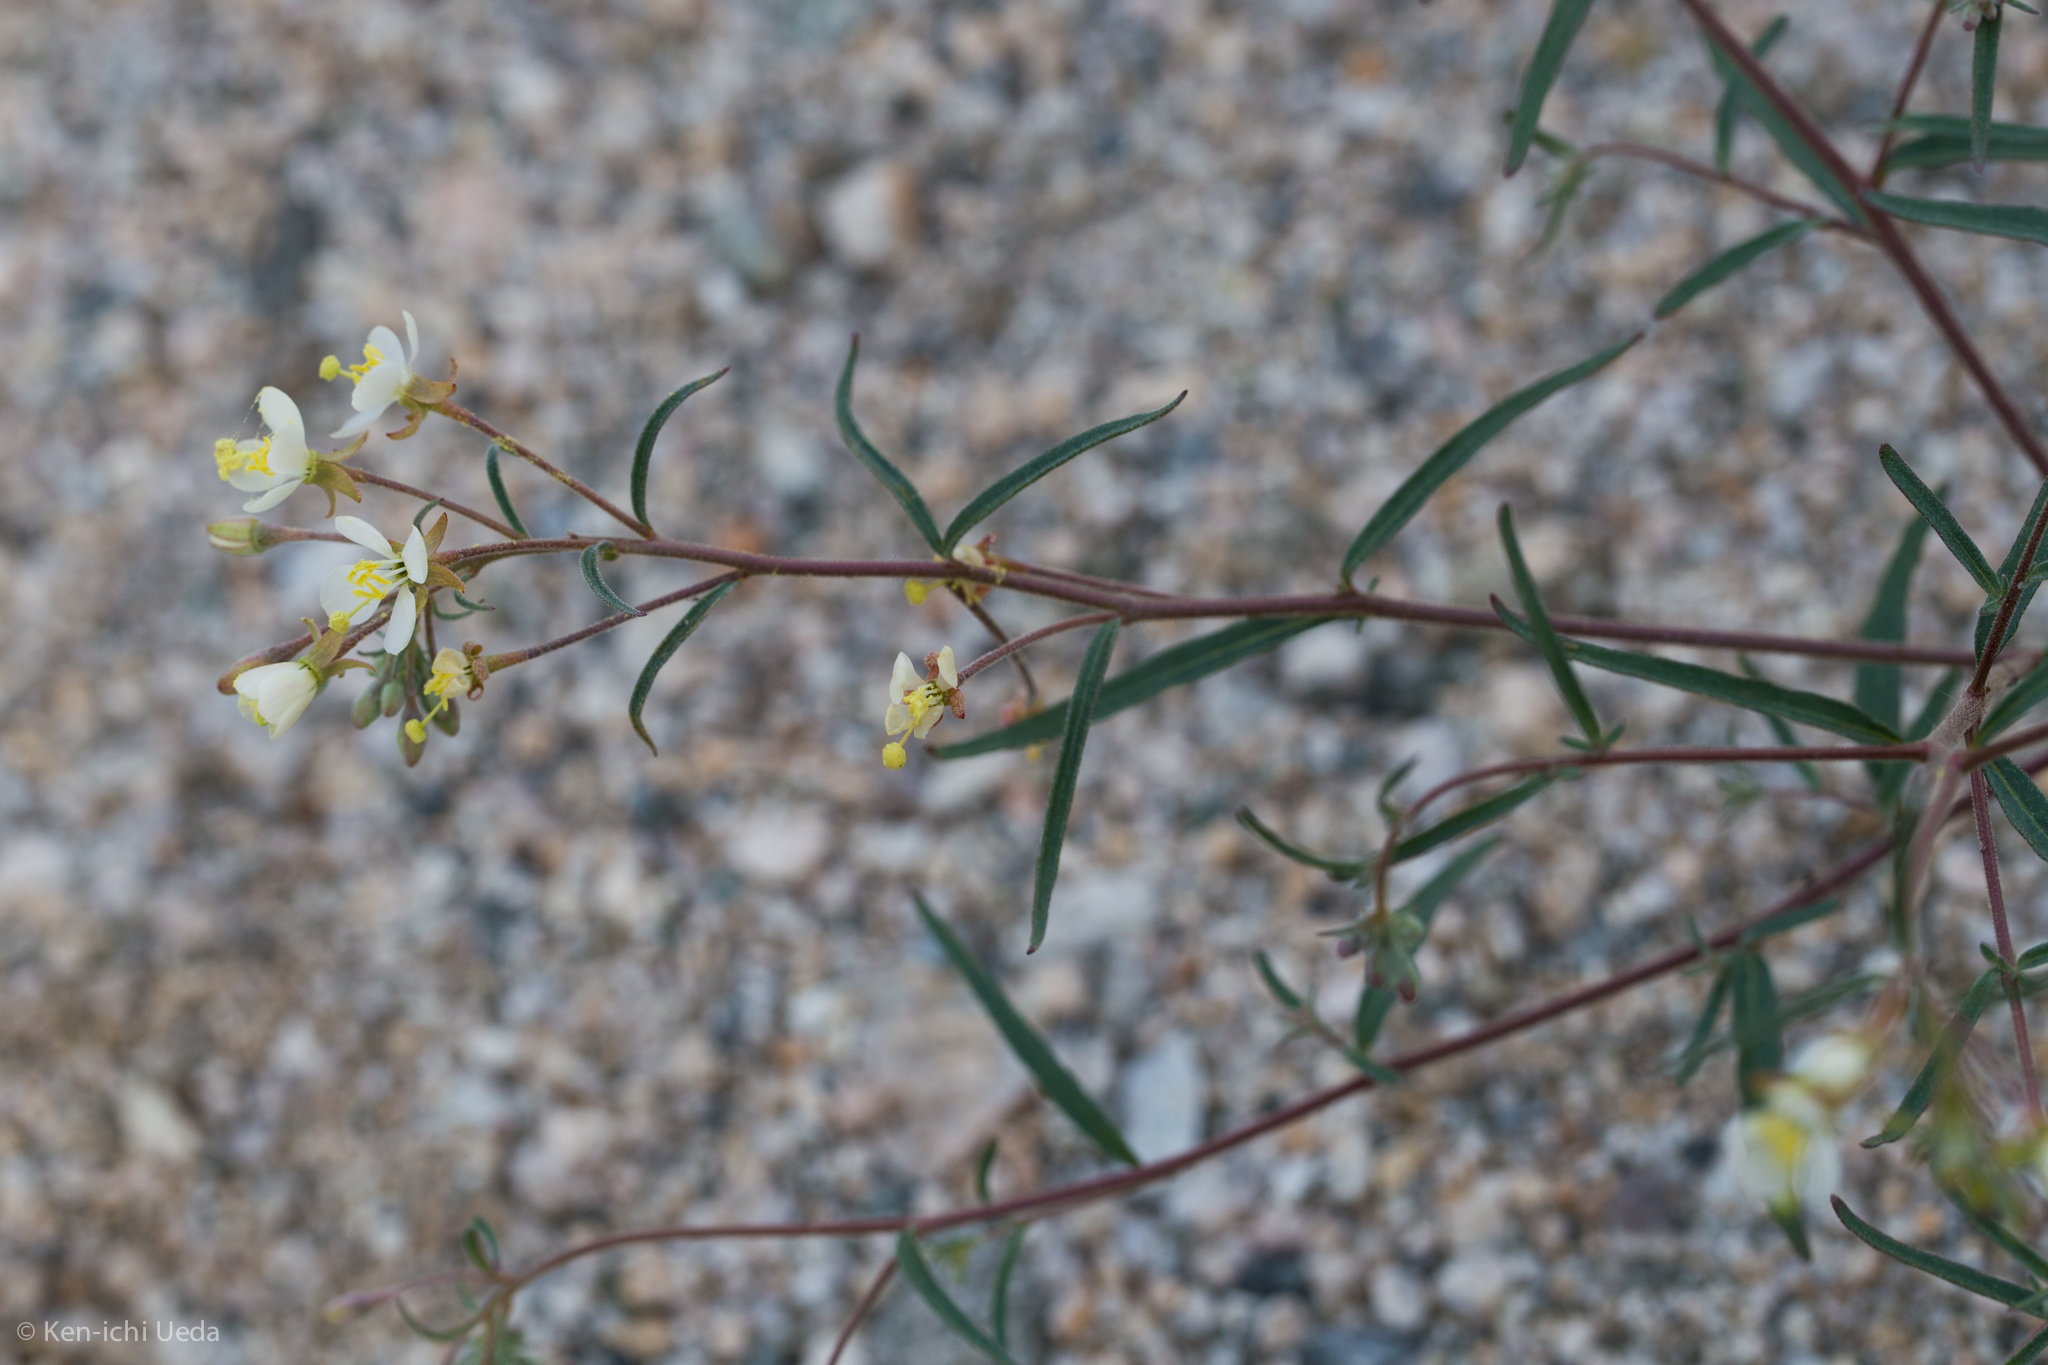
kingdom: Plantae
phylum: Tracheophyta
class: Magnoliopsida
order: Myrtales
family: Onagraceae
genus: Eremothera
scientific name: Eremothera refracta
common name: Narrowleaf suncup
